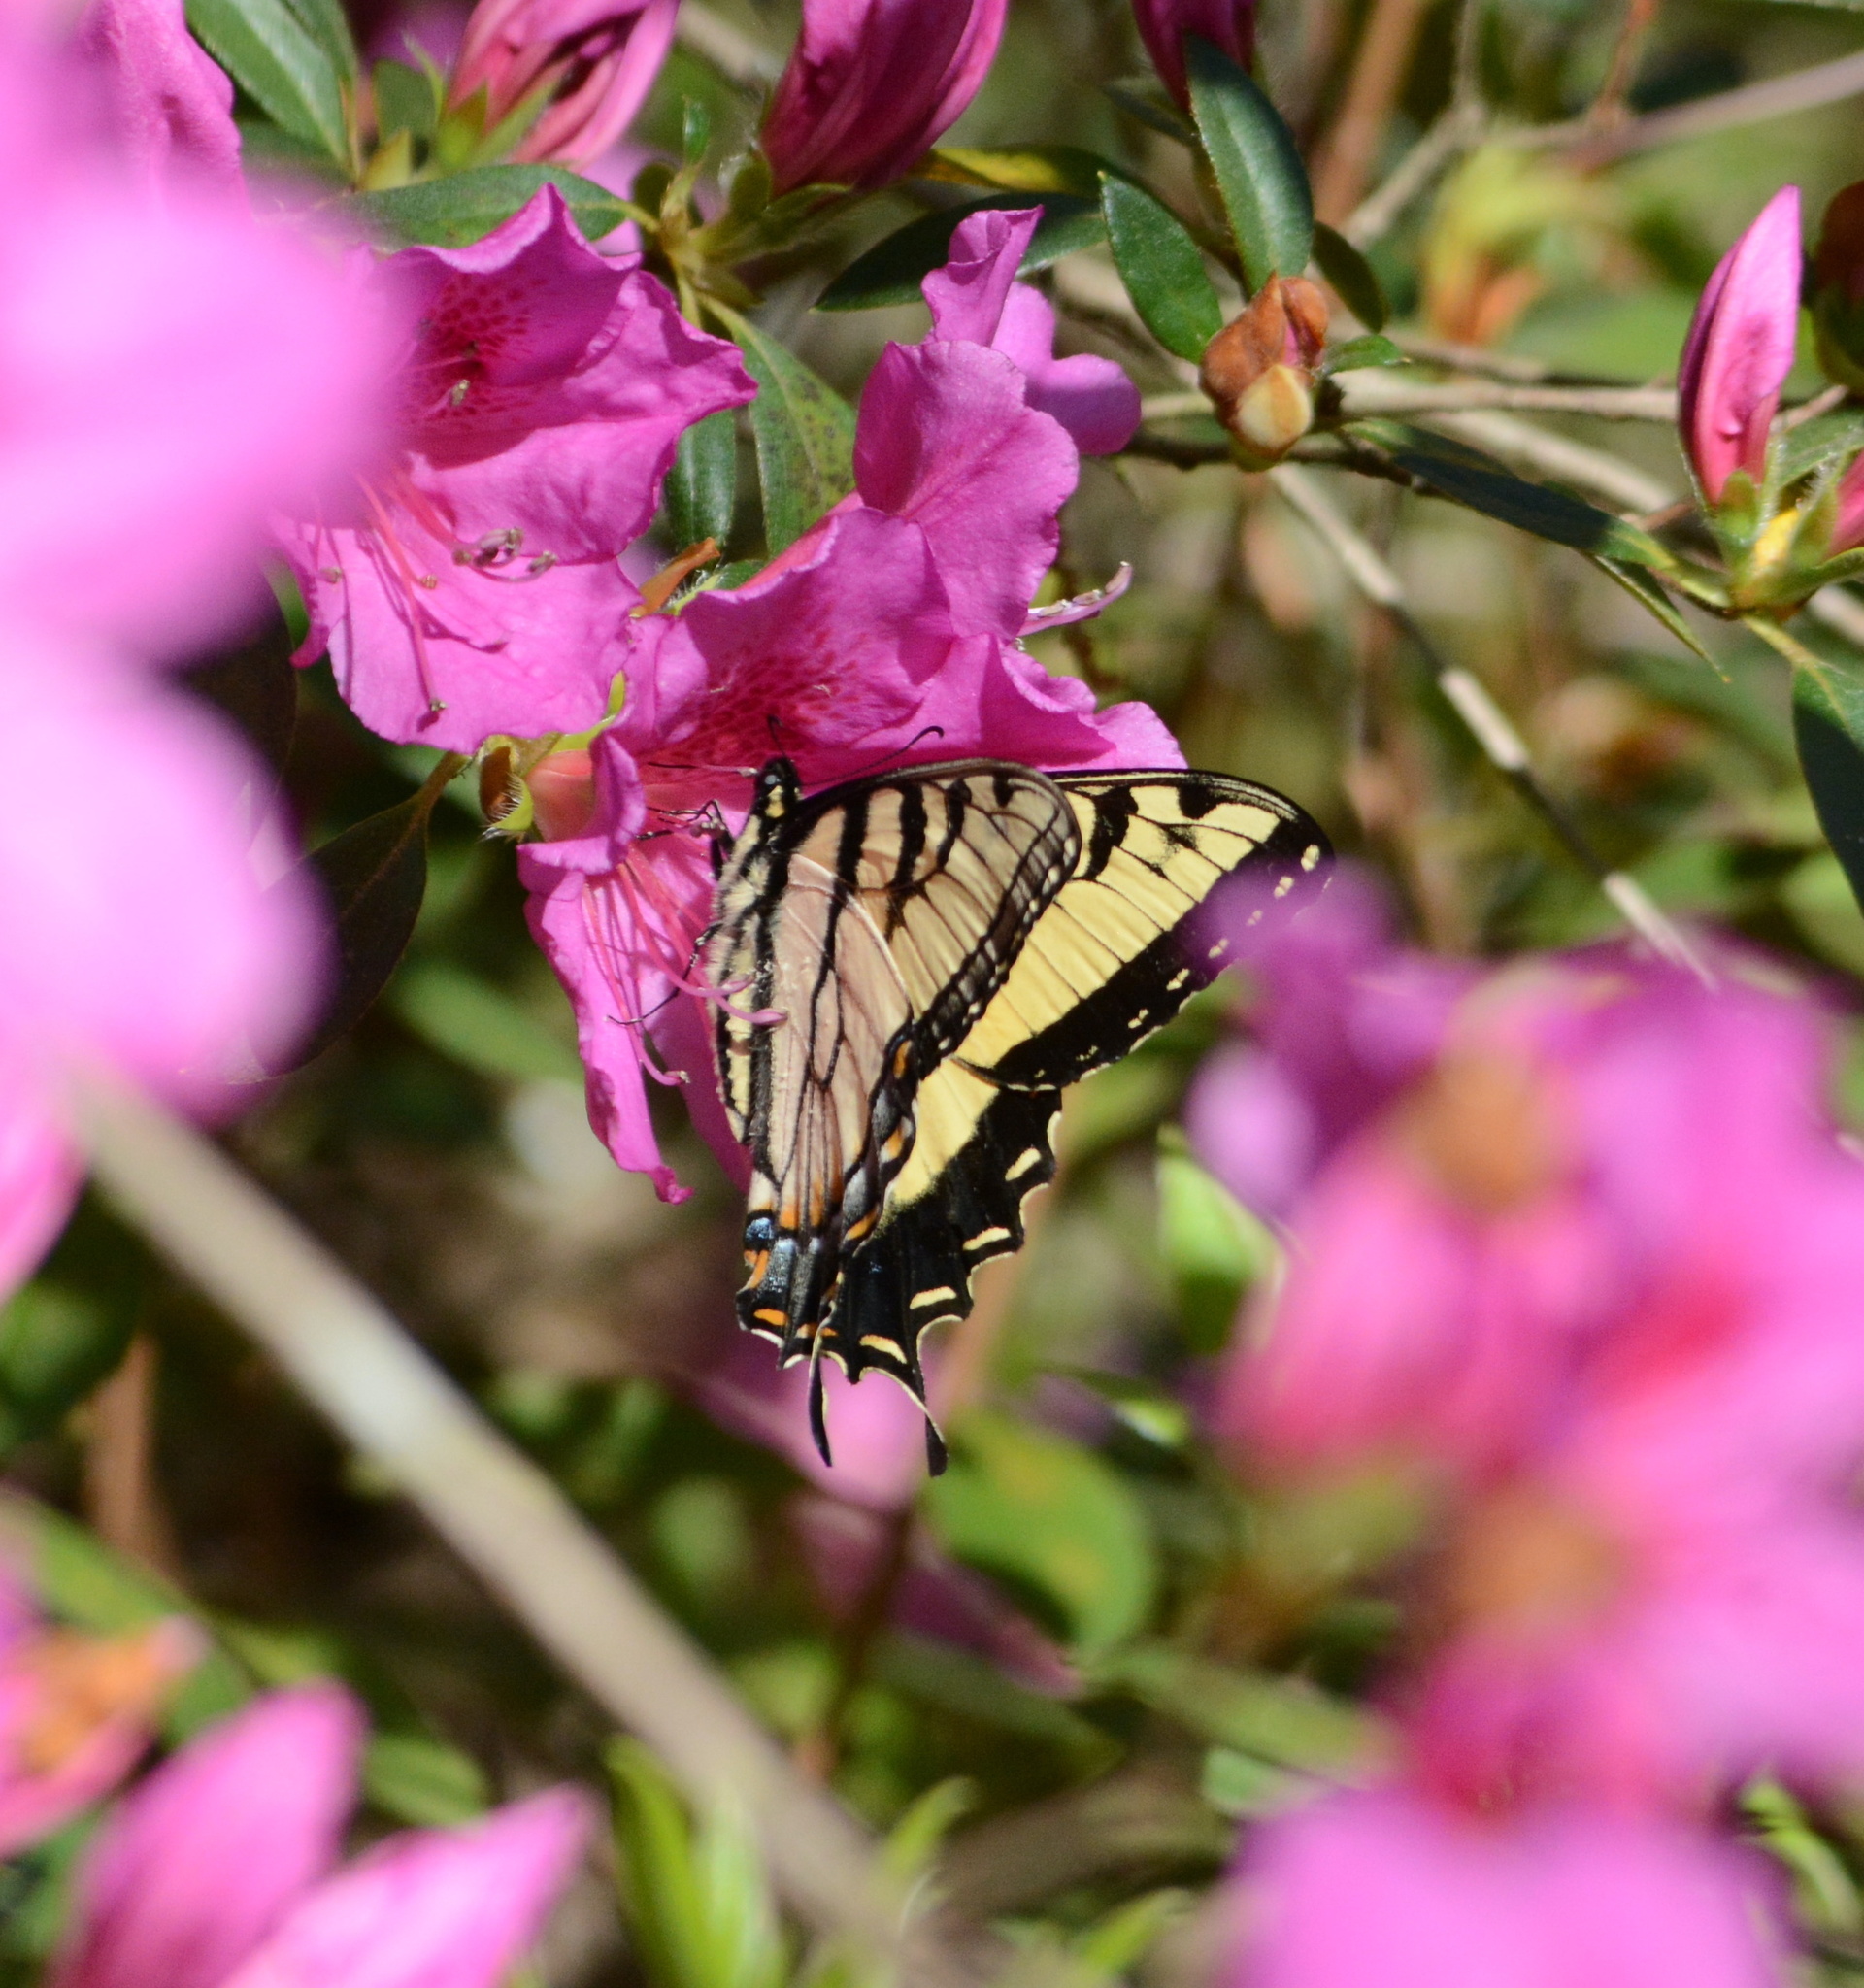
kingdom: Animalia
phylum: Arthropoda
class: Insecta
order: Lepidoptera
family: Papilionidae
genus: Papilio
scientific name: Papilio glaucus
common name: Tiger swallowtail
